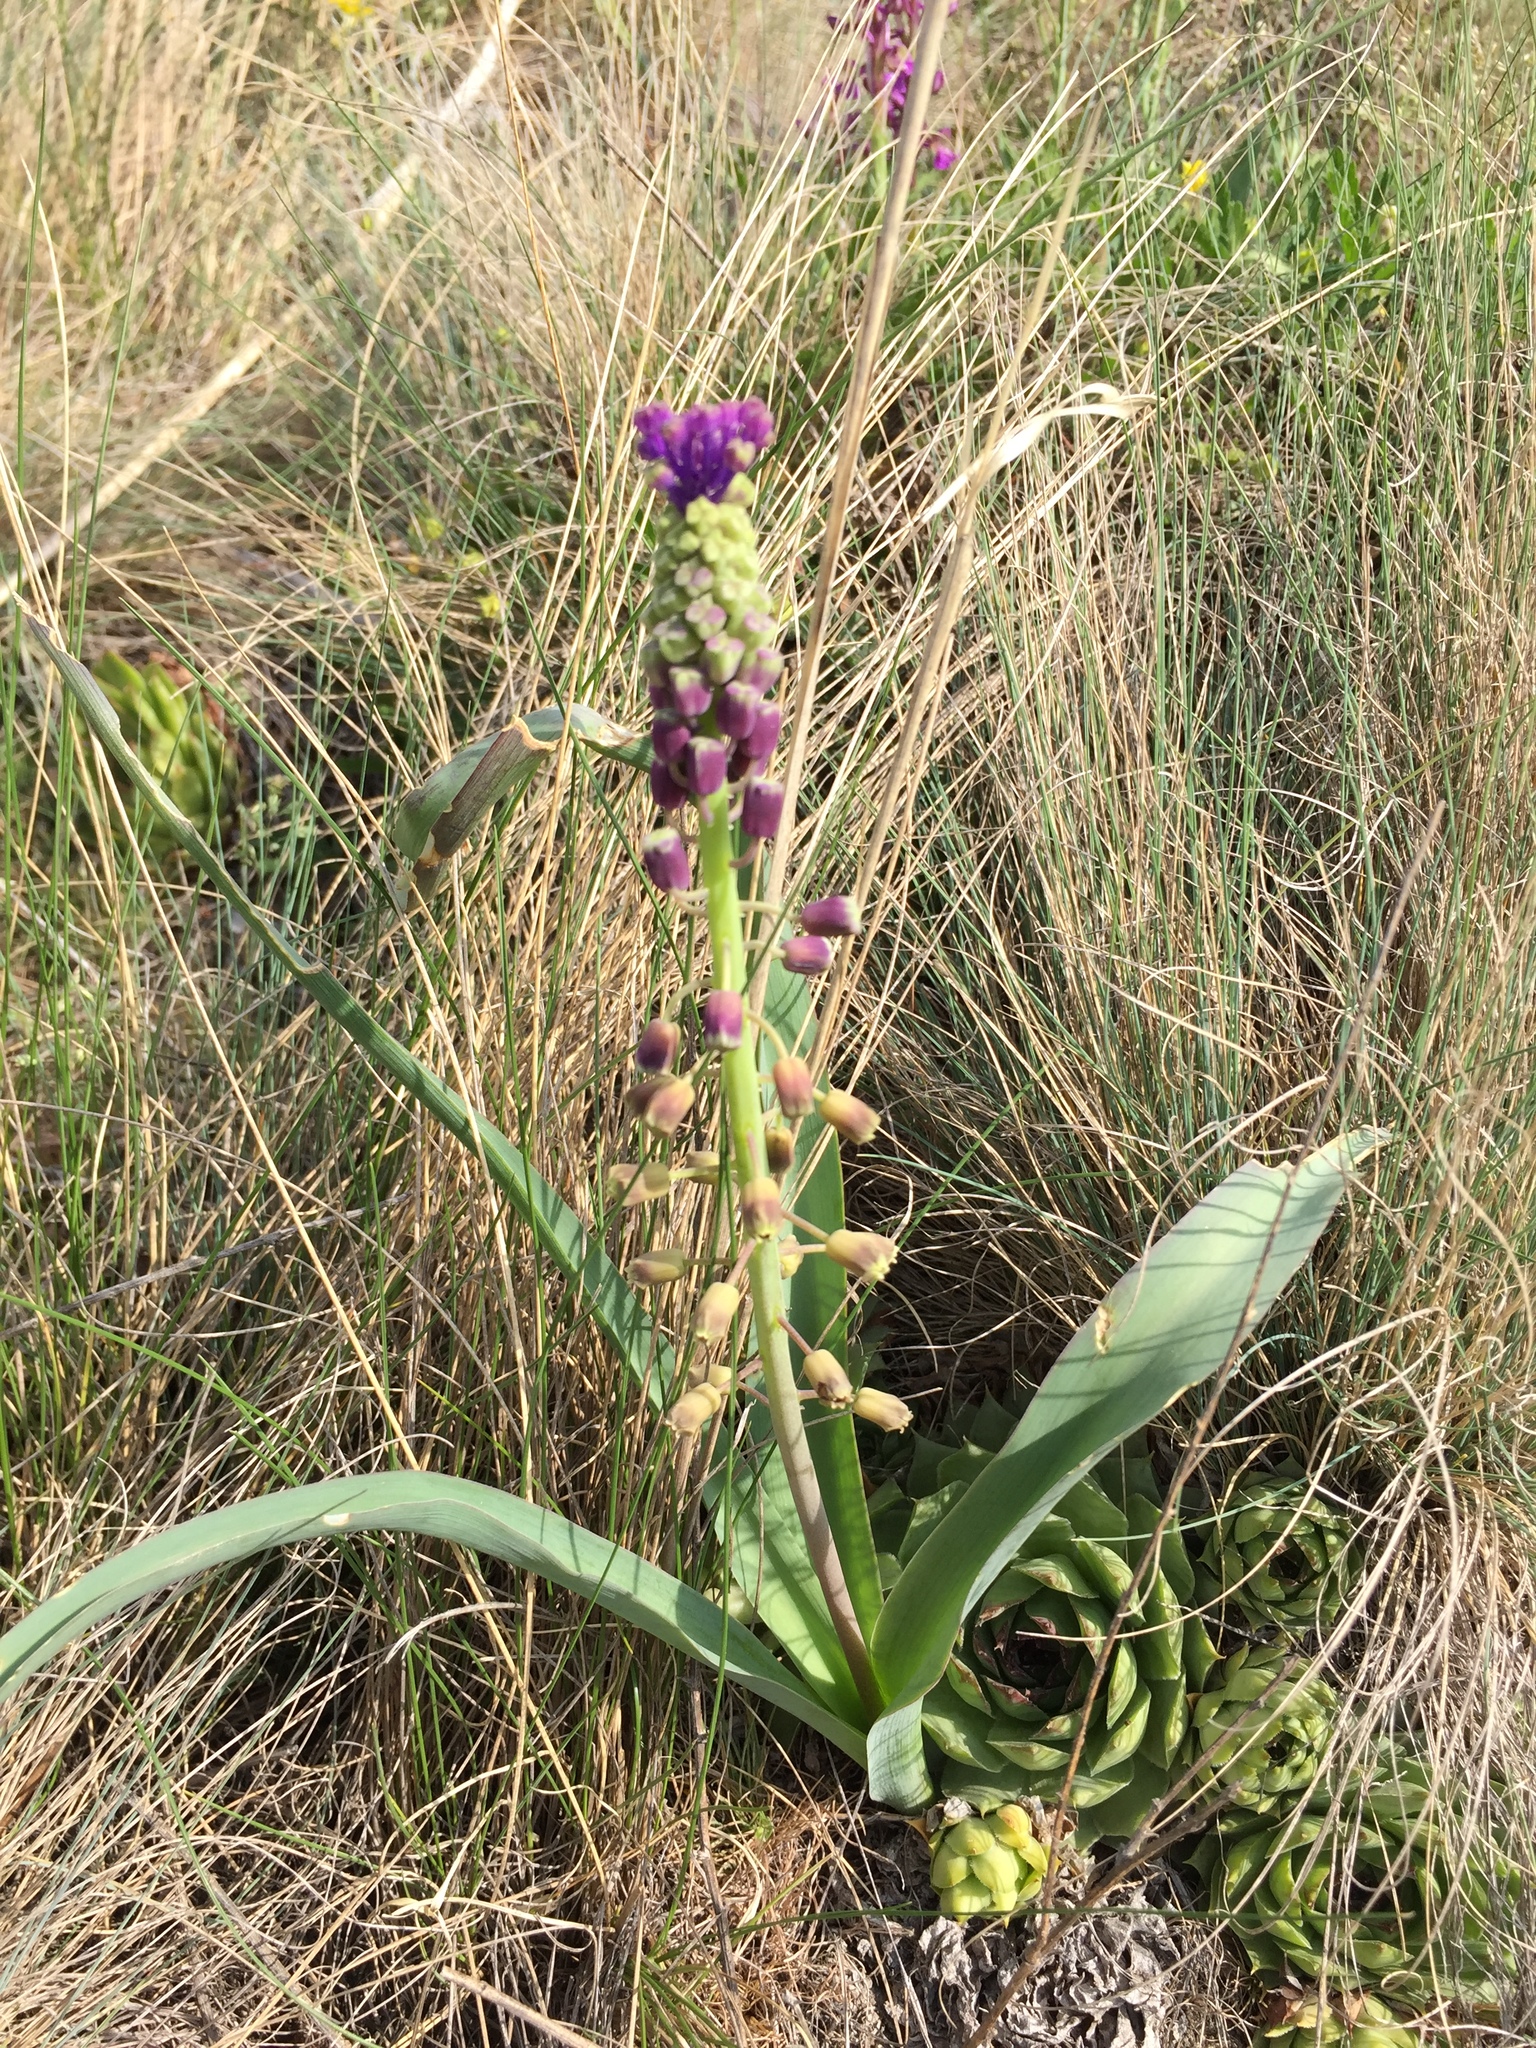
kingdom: Plantae
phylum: Tracheophyta
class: Liliopsida
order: Asparagales
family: Asparagaceae
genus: Muscari
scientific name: Muscari comosum
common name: Tassel hyacinth
